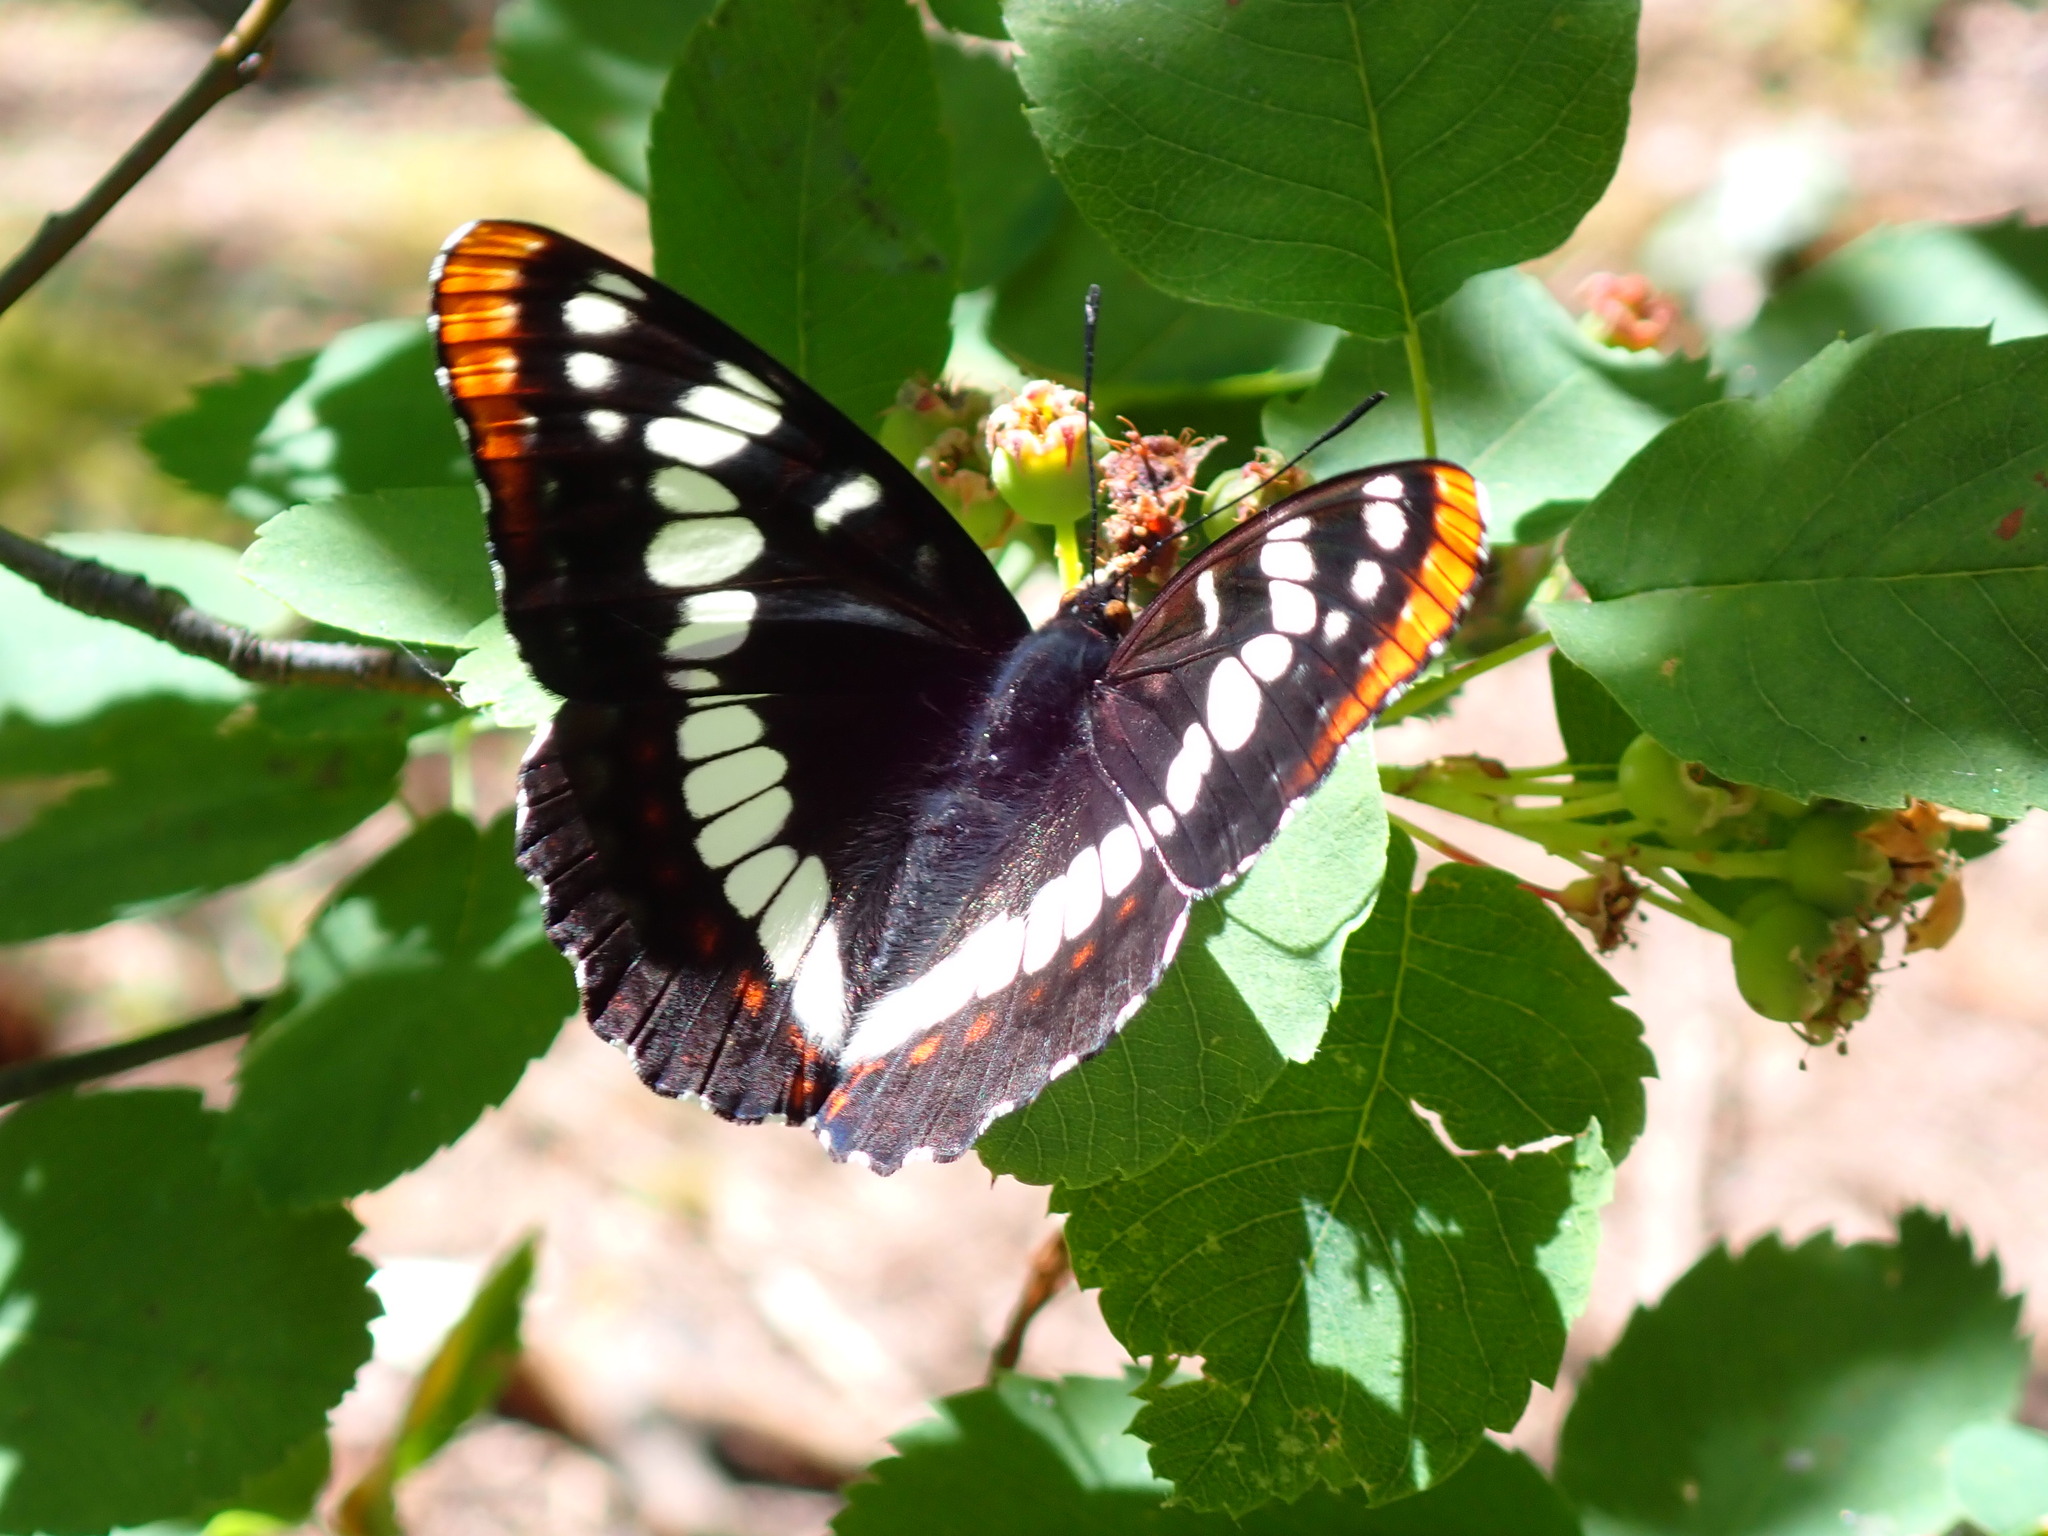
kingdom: Animalia
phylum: Arthropoda
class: Insecta
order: Lepidoptera
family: Nymphalidae
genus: Limenitis
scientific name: Limenitis lorquini
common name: Lorquin's admiral
